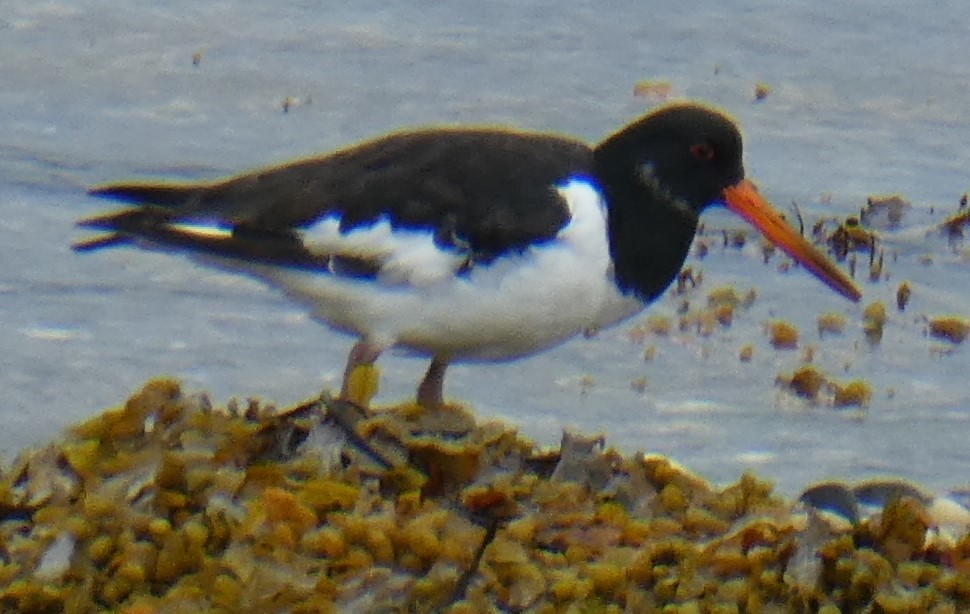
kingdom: Animalia
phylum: Chordata
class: Aves
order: Charadriiformes
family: Haematopodidae
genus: Haematopus
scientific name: Haematopus ostralegus
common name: Eurasian oystercatcher
